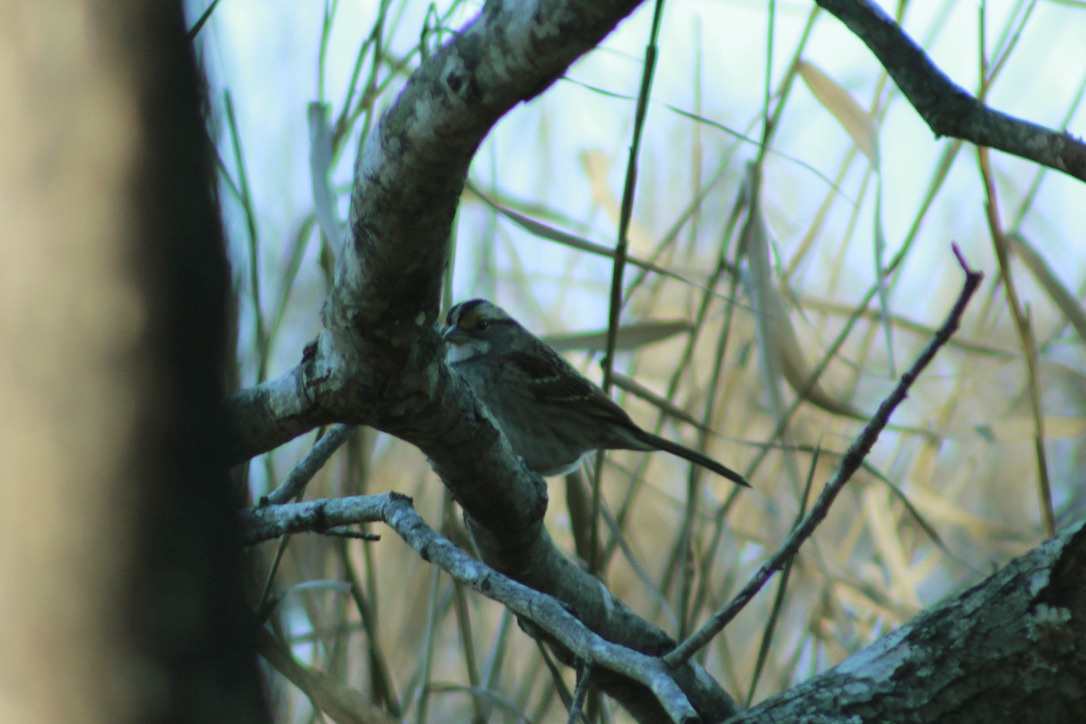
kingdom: Animalia
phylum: Chordata
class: Aves
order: Passeriformes
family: Passerellidae
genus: Zonotrichia
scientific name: Zonotrichia albicollis
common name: White-throated sparrow
